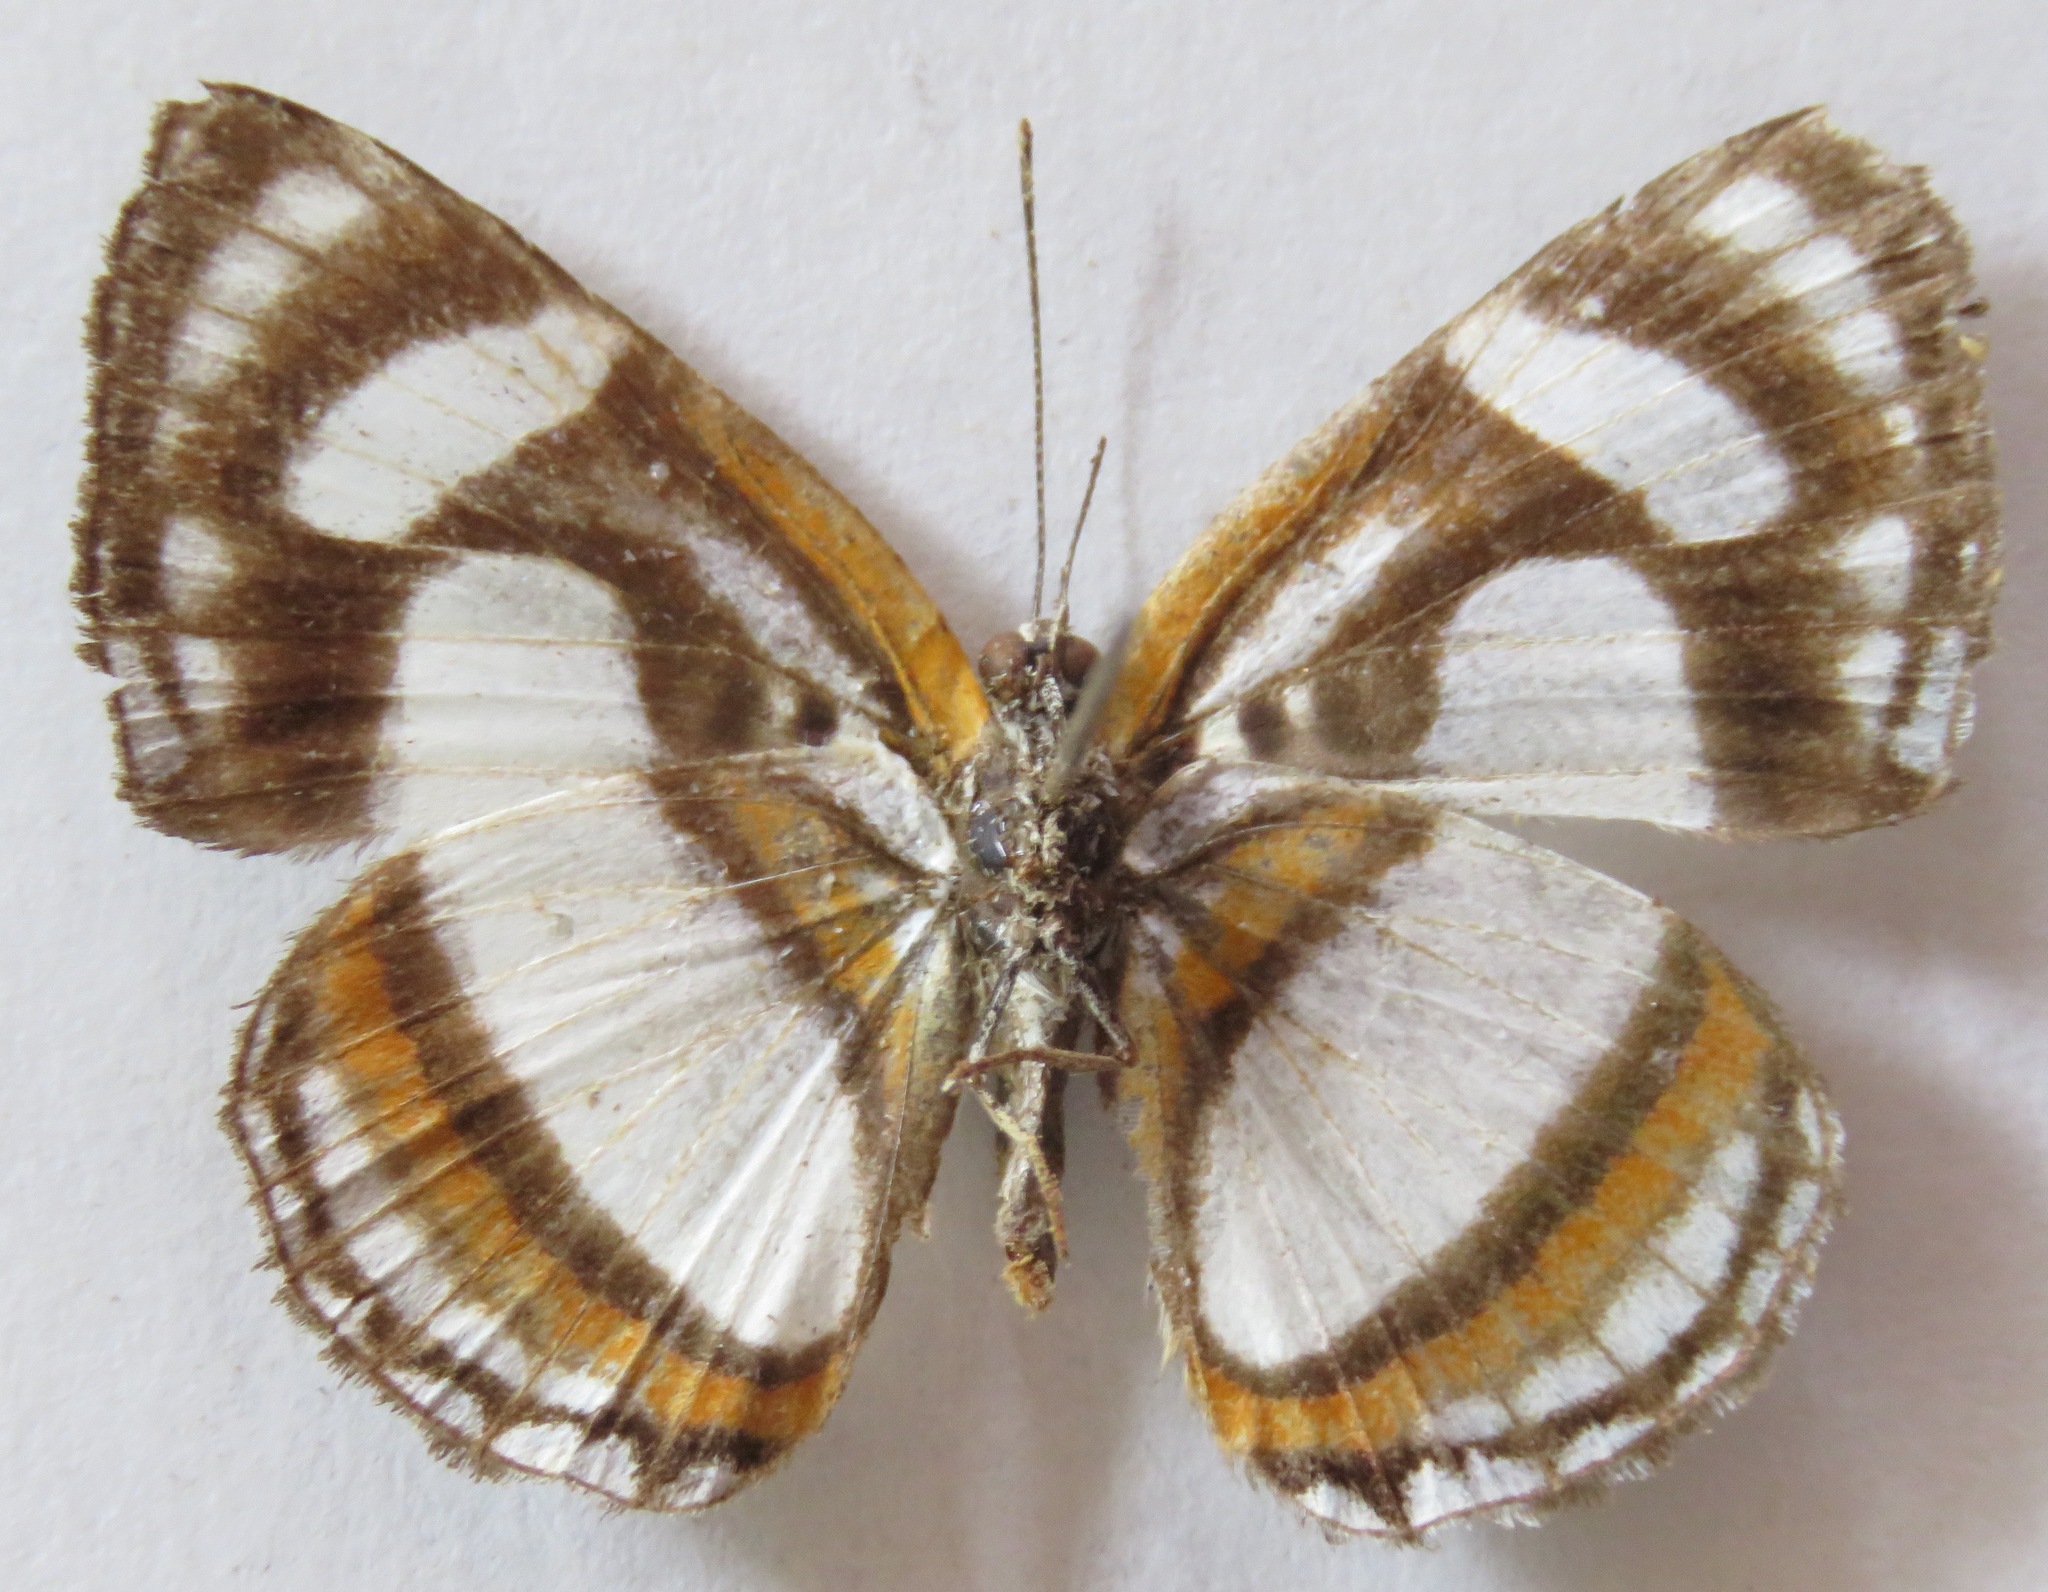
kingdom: Animalia
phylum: Arthropoda
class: Insecta
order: Lepidoptera
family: Riodinidae
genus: Thisbe
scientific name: Thisbe irenea
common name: Irenia metalmark
